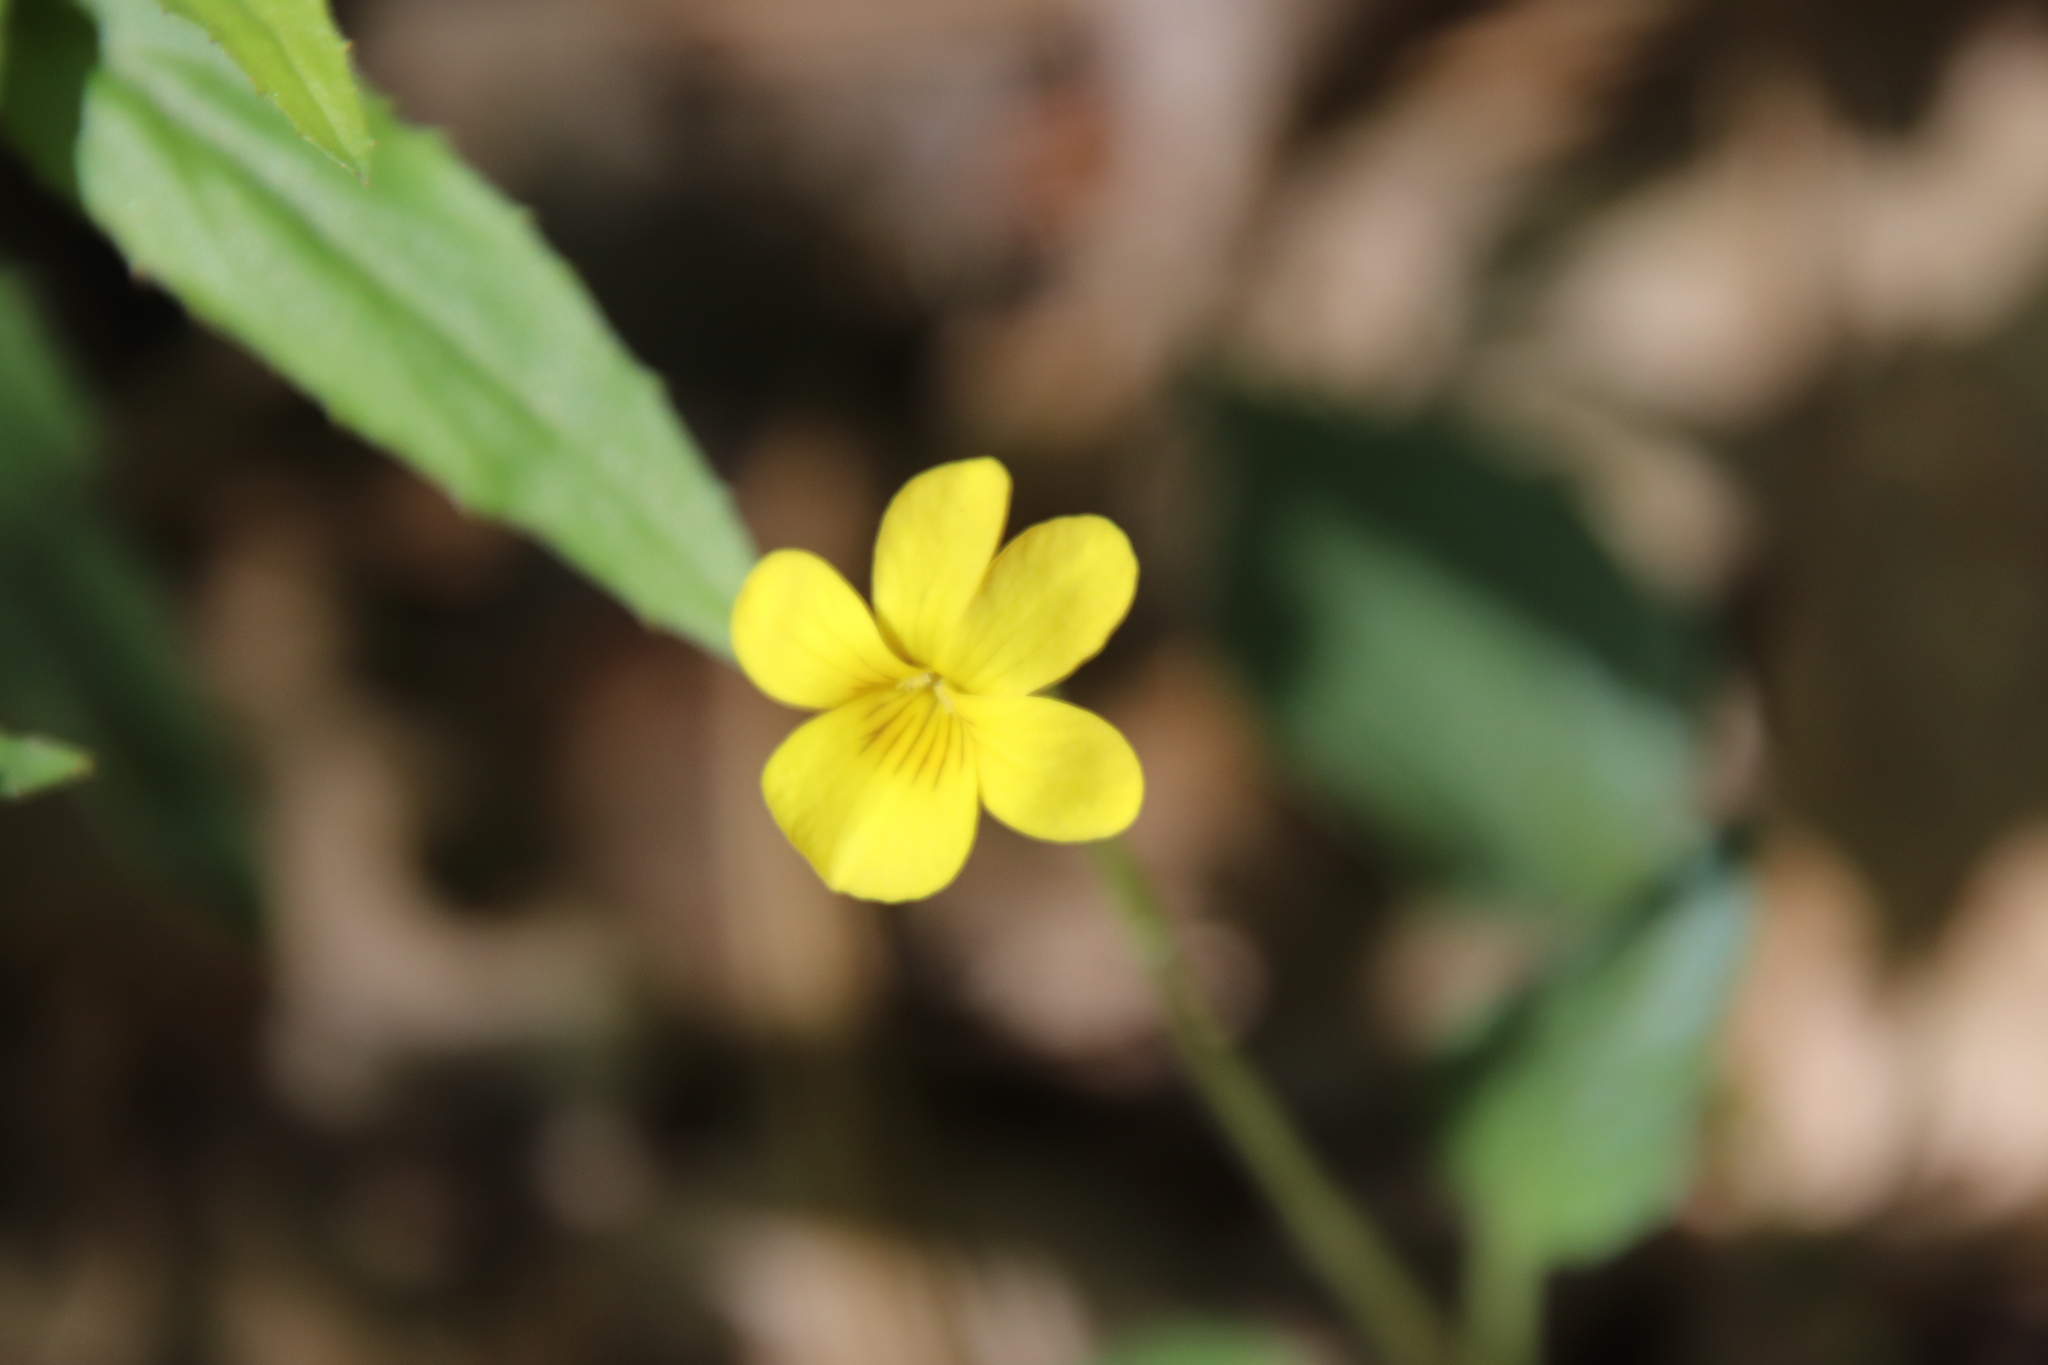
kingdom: Plantae
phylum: Tracheophyta
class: Magnoliopsida
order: Malpighiales
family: Violaceae
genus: Viola
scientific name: Viola purpurea
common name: Pine violet
